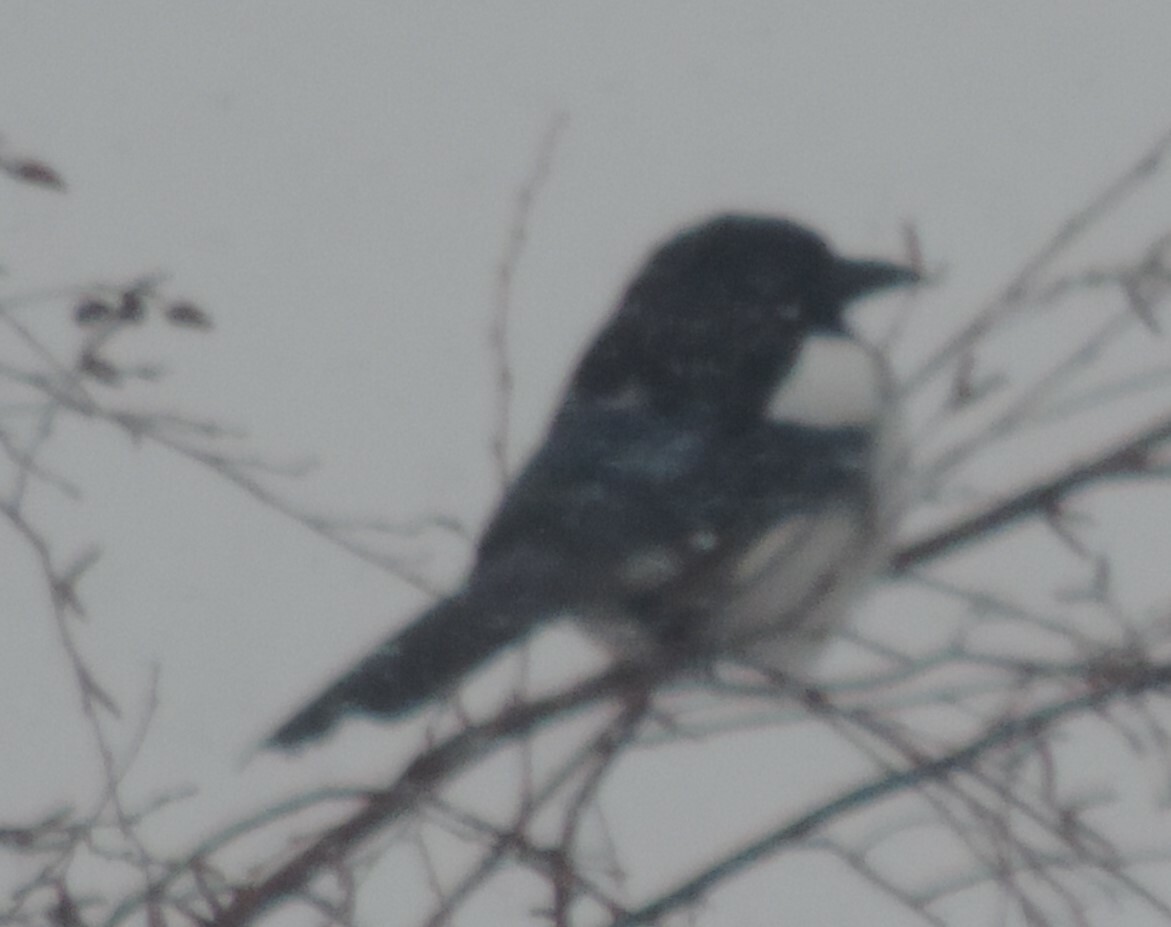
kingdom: Animalia
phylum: Chordata
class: Aves
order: Passeriformes
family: Corvidae
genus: Pica
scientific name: Pica hudsonia
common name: Black-billed magpie
